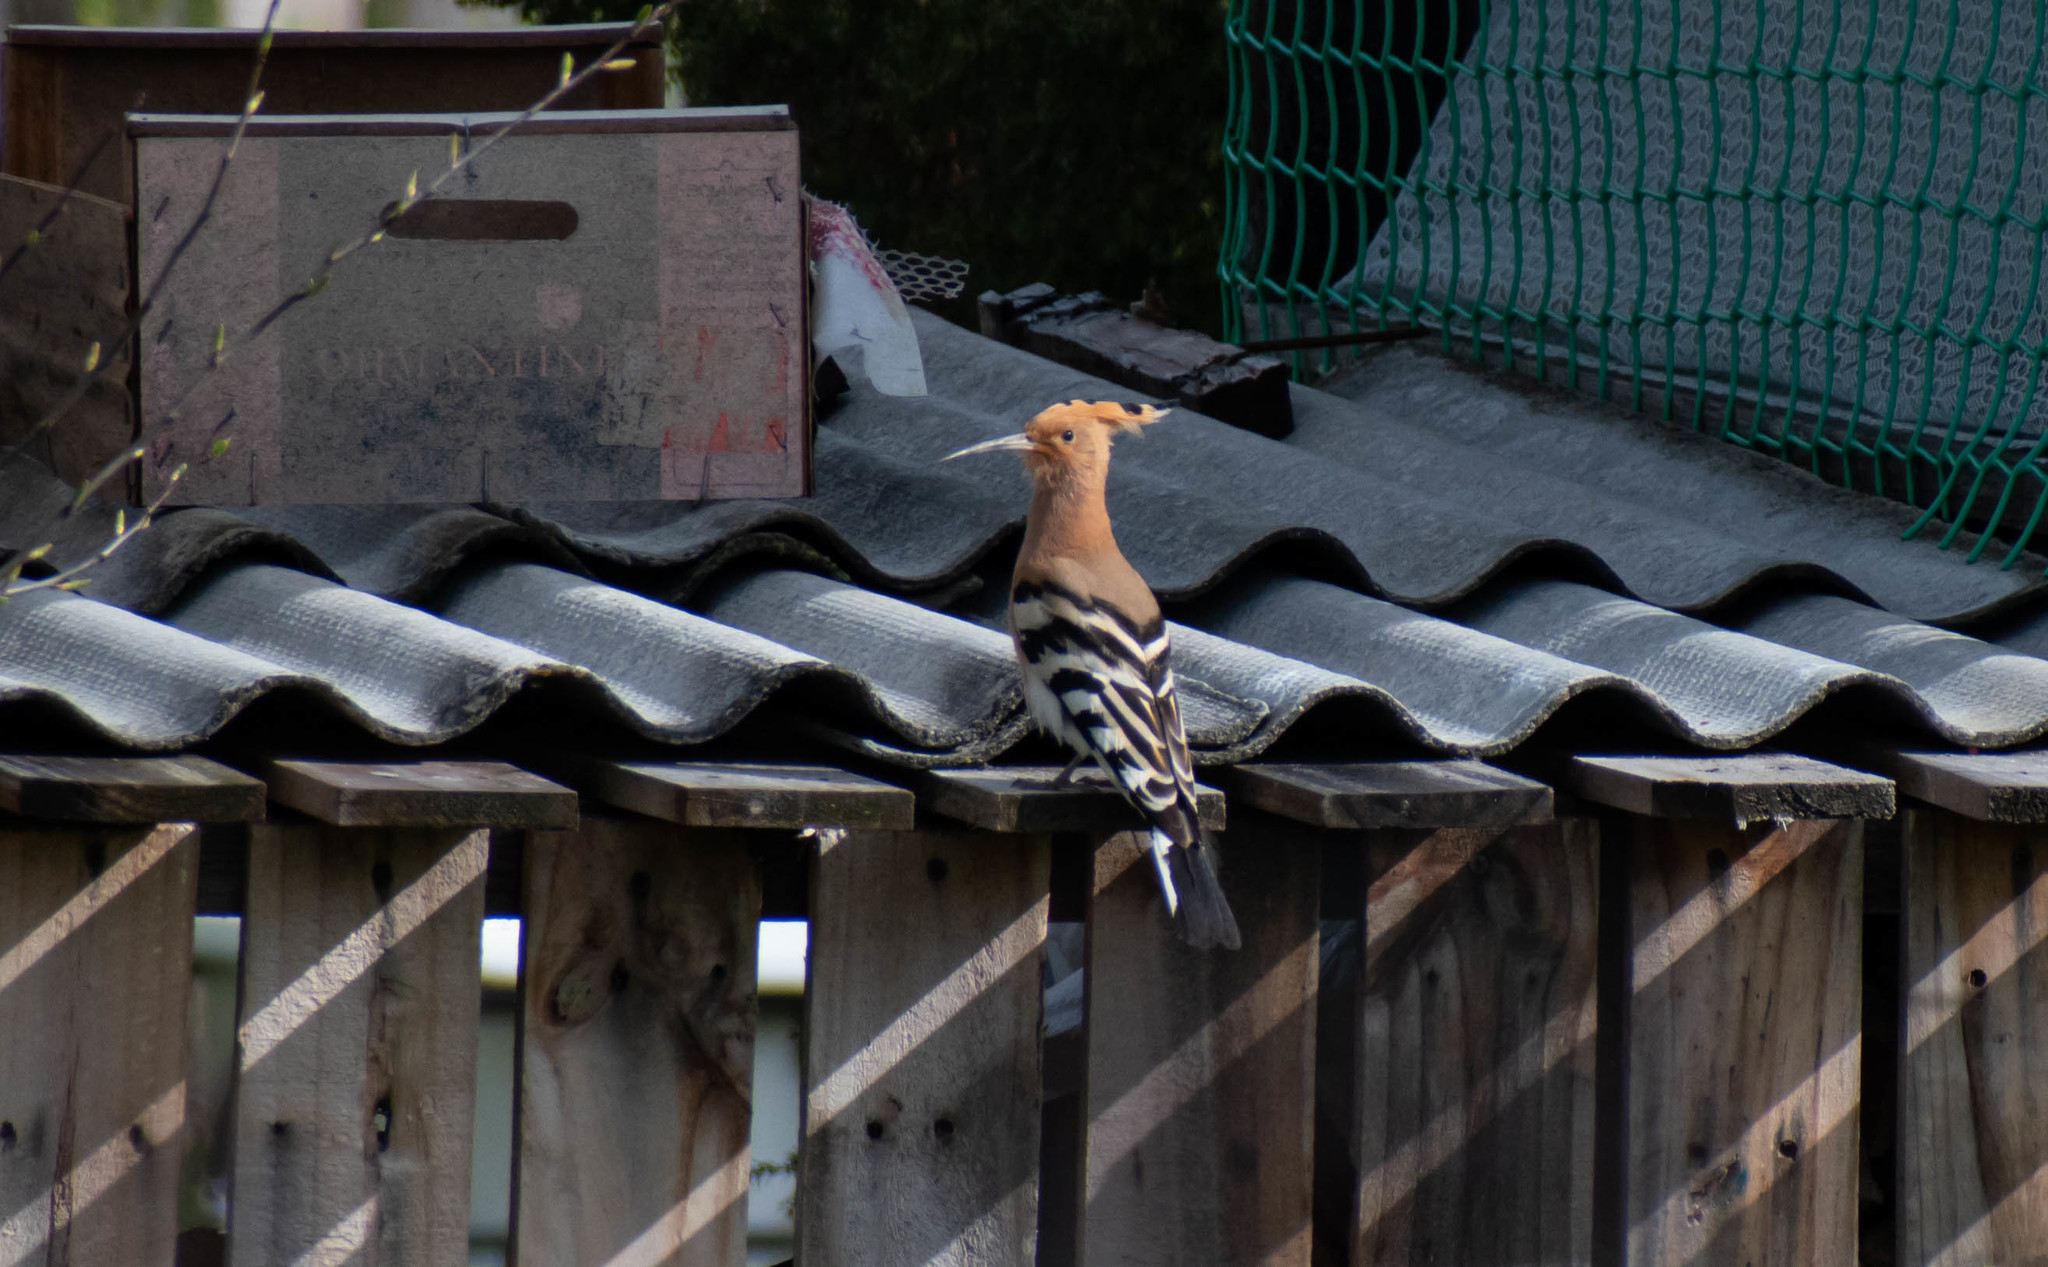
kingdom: Animalia
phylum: Chordata
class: Aves
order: Bucerotiformes
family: Upupidae
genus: Upupa
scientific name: Upupa epops
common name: Eurasian hoopoe
